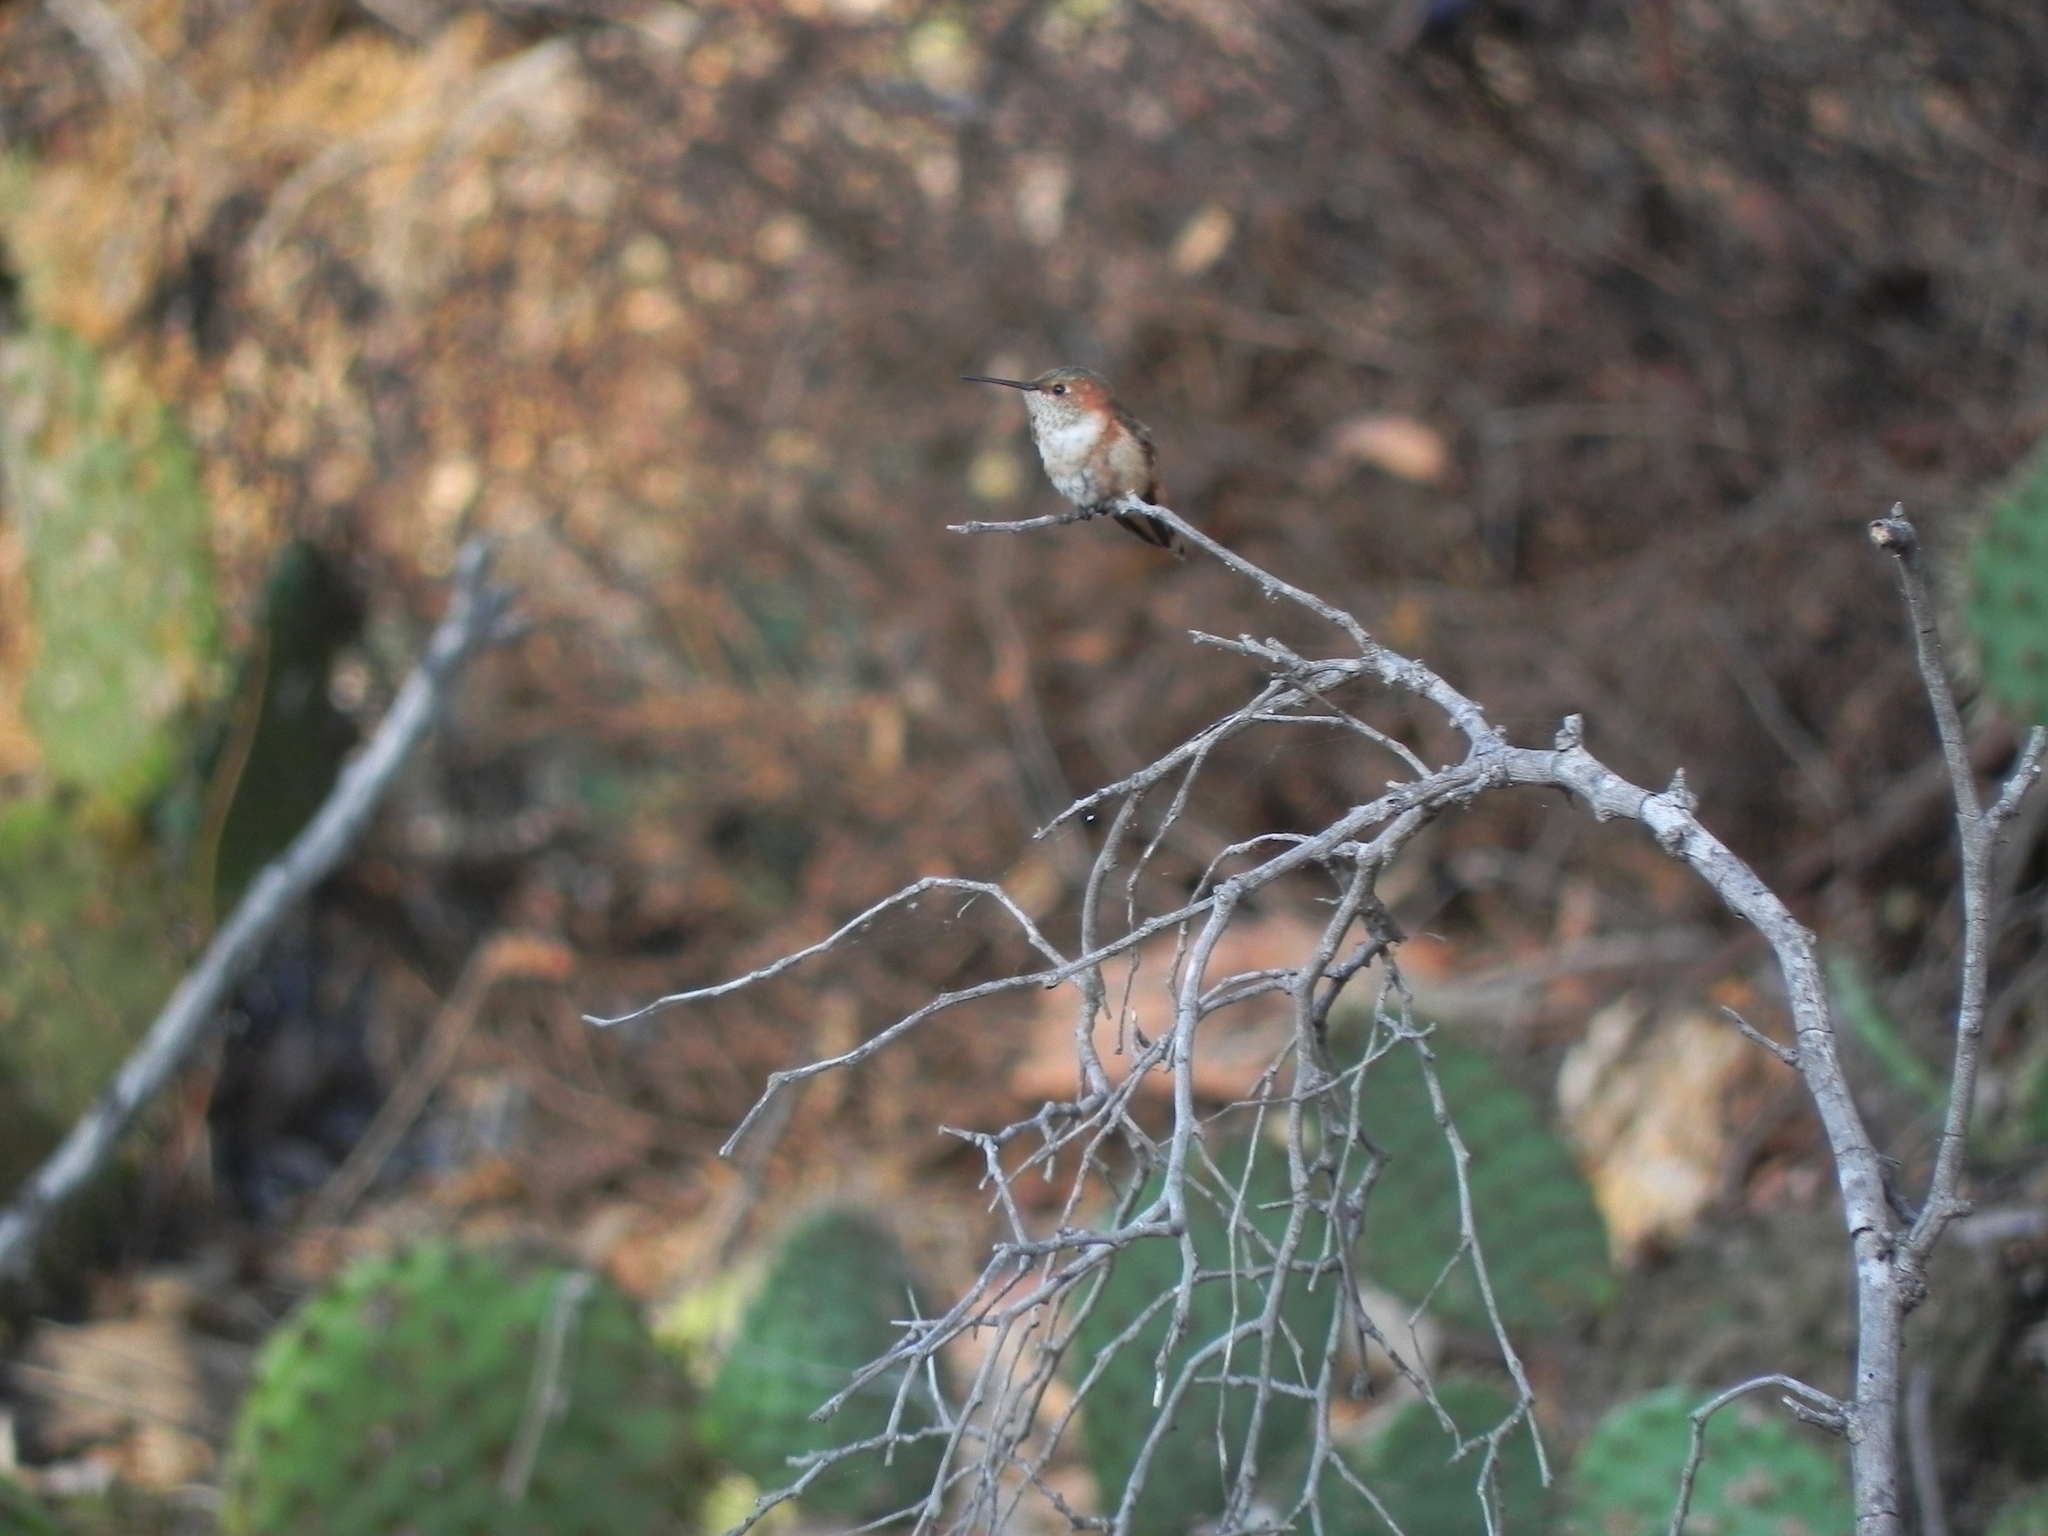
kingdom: Animalia
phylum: Chordata
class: Aves
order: Apodiformes
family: Trochilidae
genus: Selasphorus
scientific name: Selasphorus
